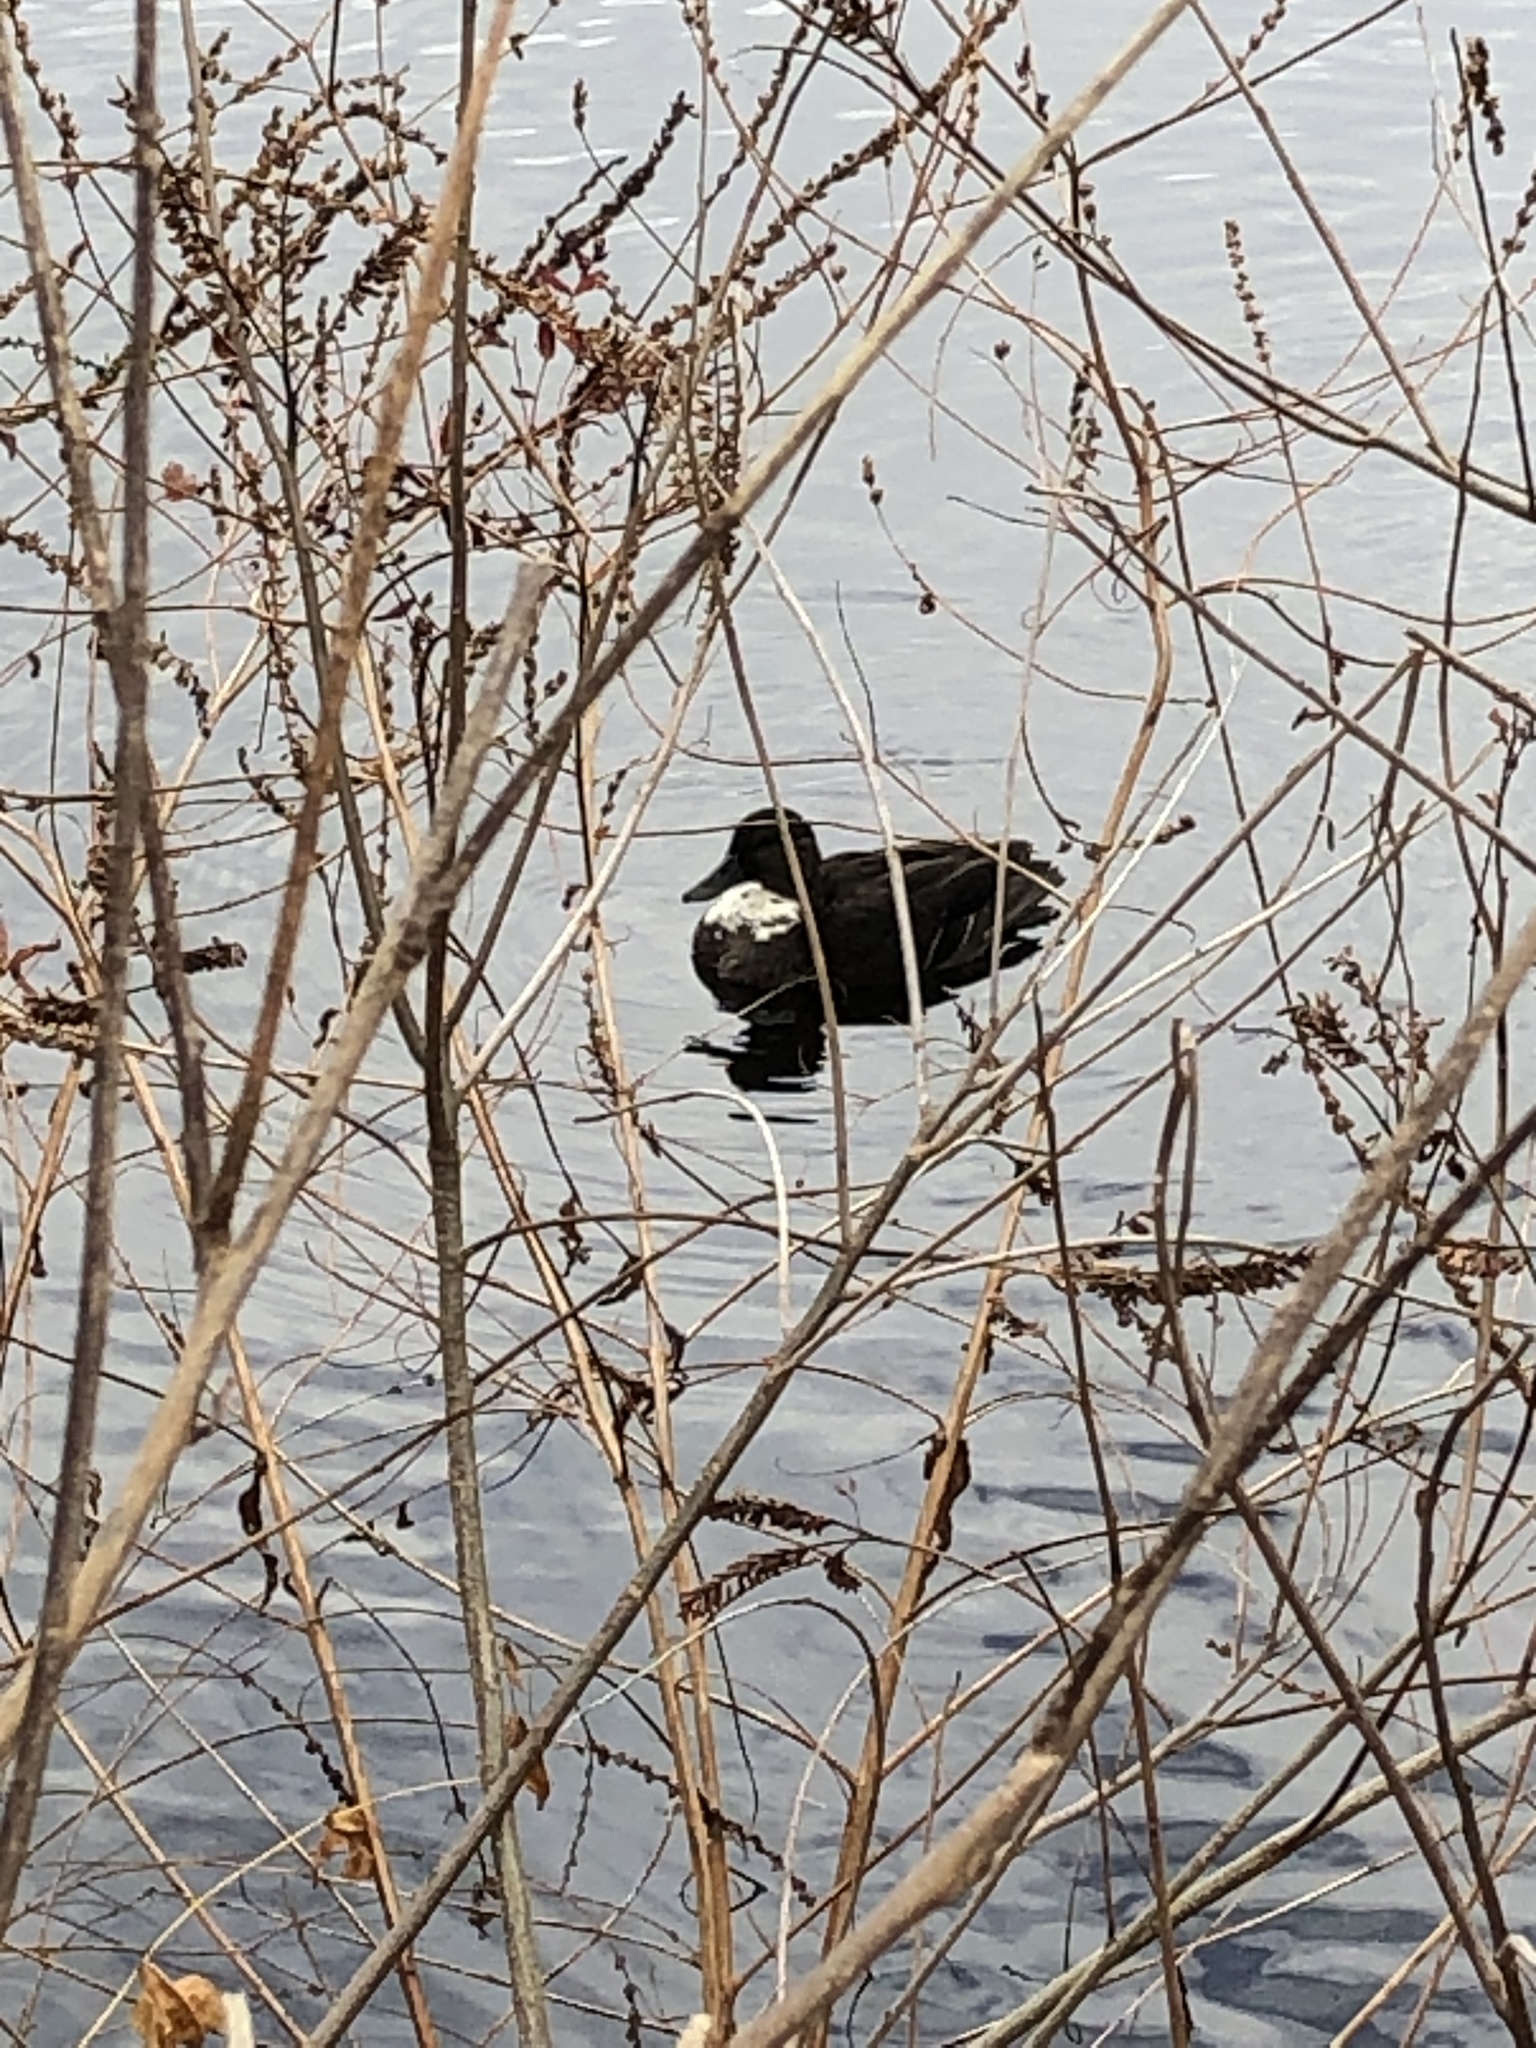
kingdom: Animalia
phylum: Chordata
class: Aves
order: Anseriformes
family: Anatidae
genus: Anas
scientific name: Anas platyrhynchos
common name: Mallard
